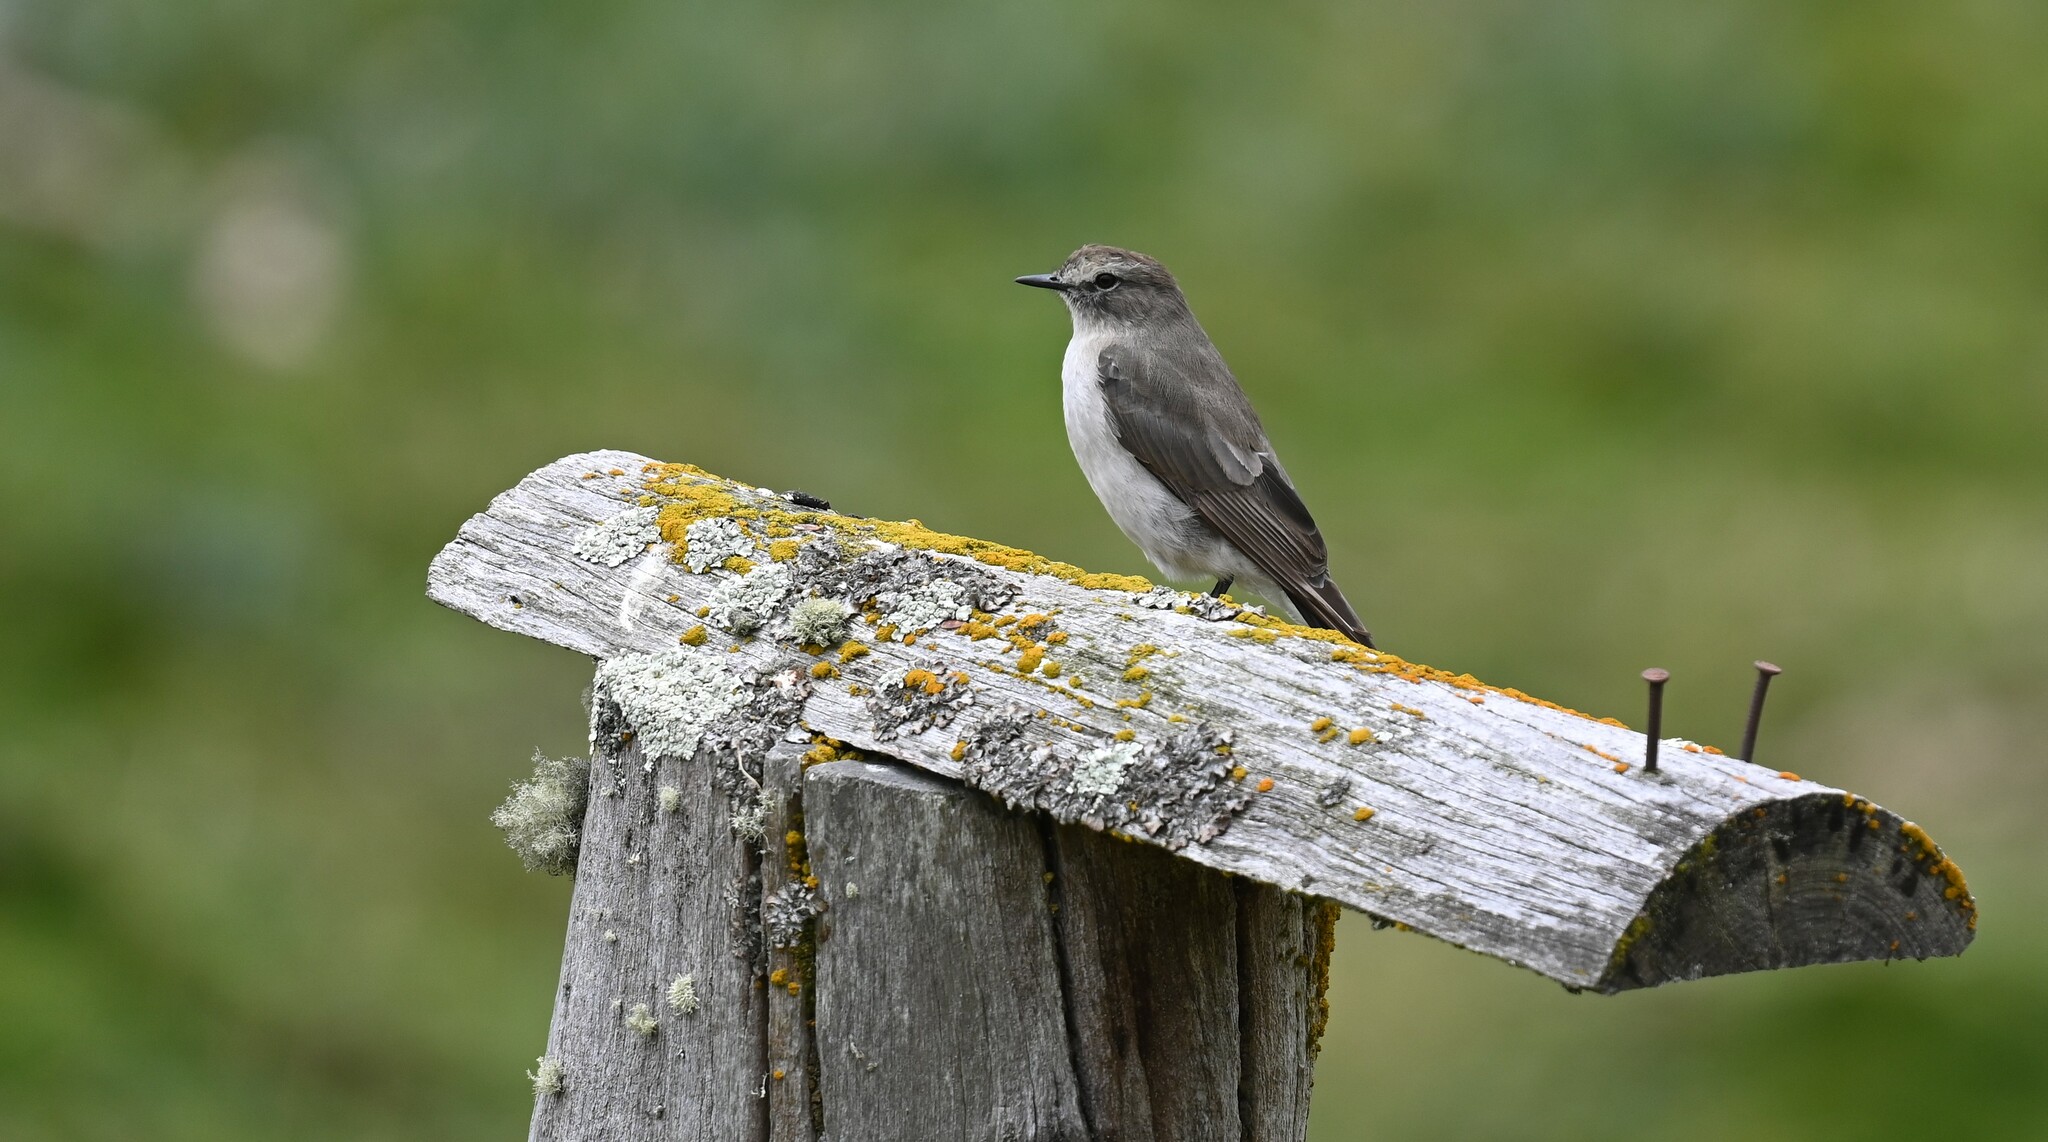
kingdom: Animalia
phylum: Chordata
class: Aves
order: Passeriformes
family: Tyrannidae
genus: Muscisaxicola
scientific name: Muscisaxicola alpinus
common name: Paramo ground tyrant
